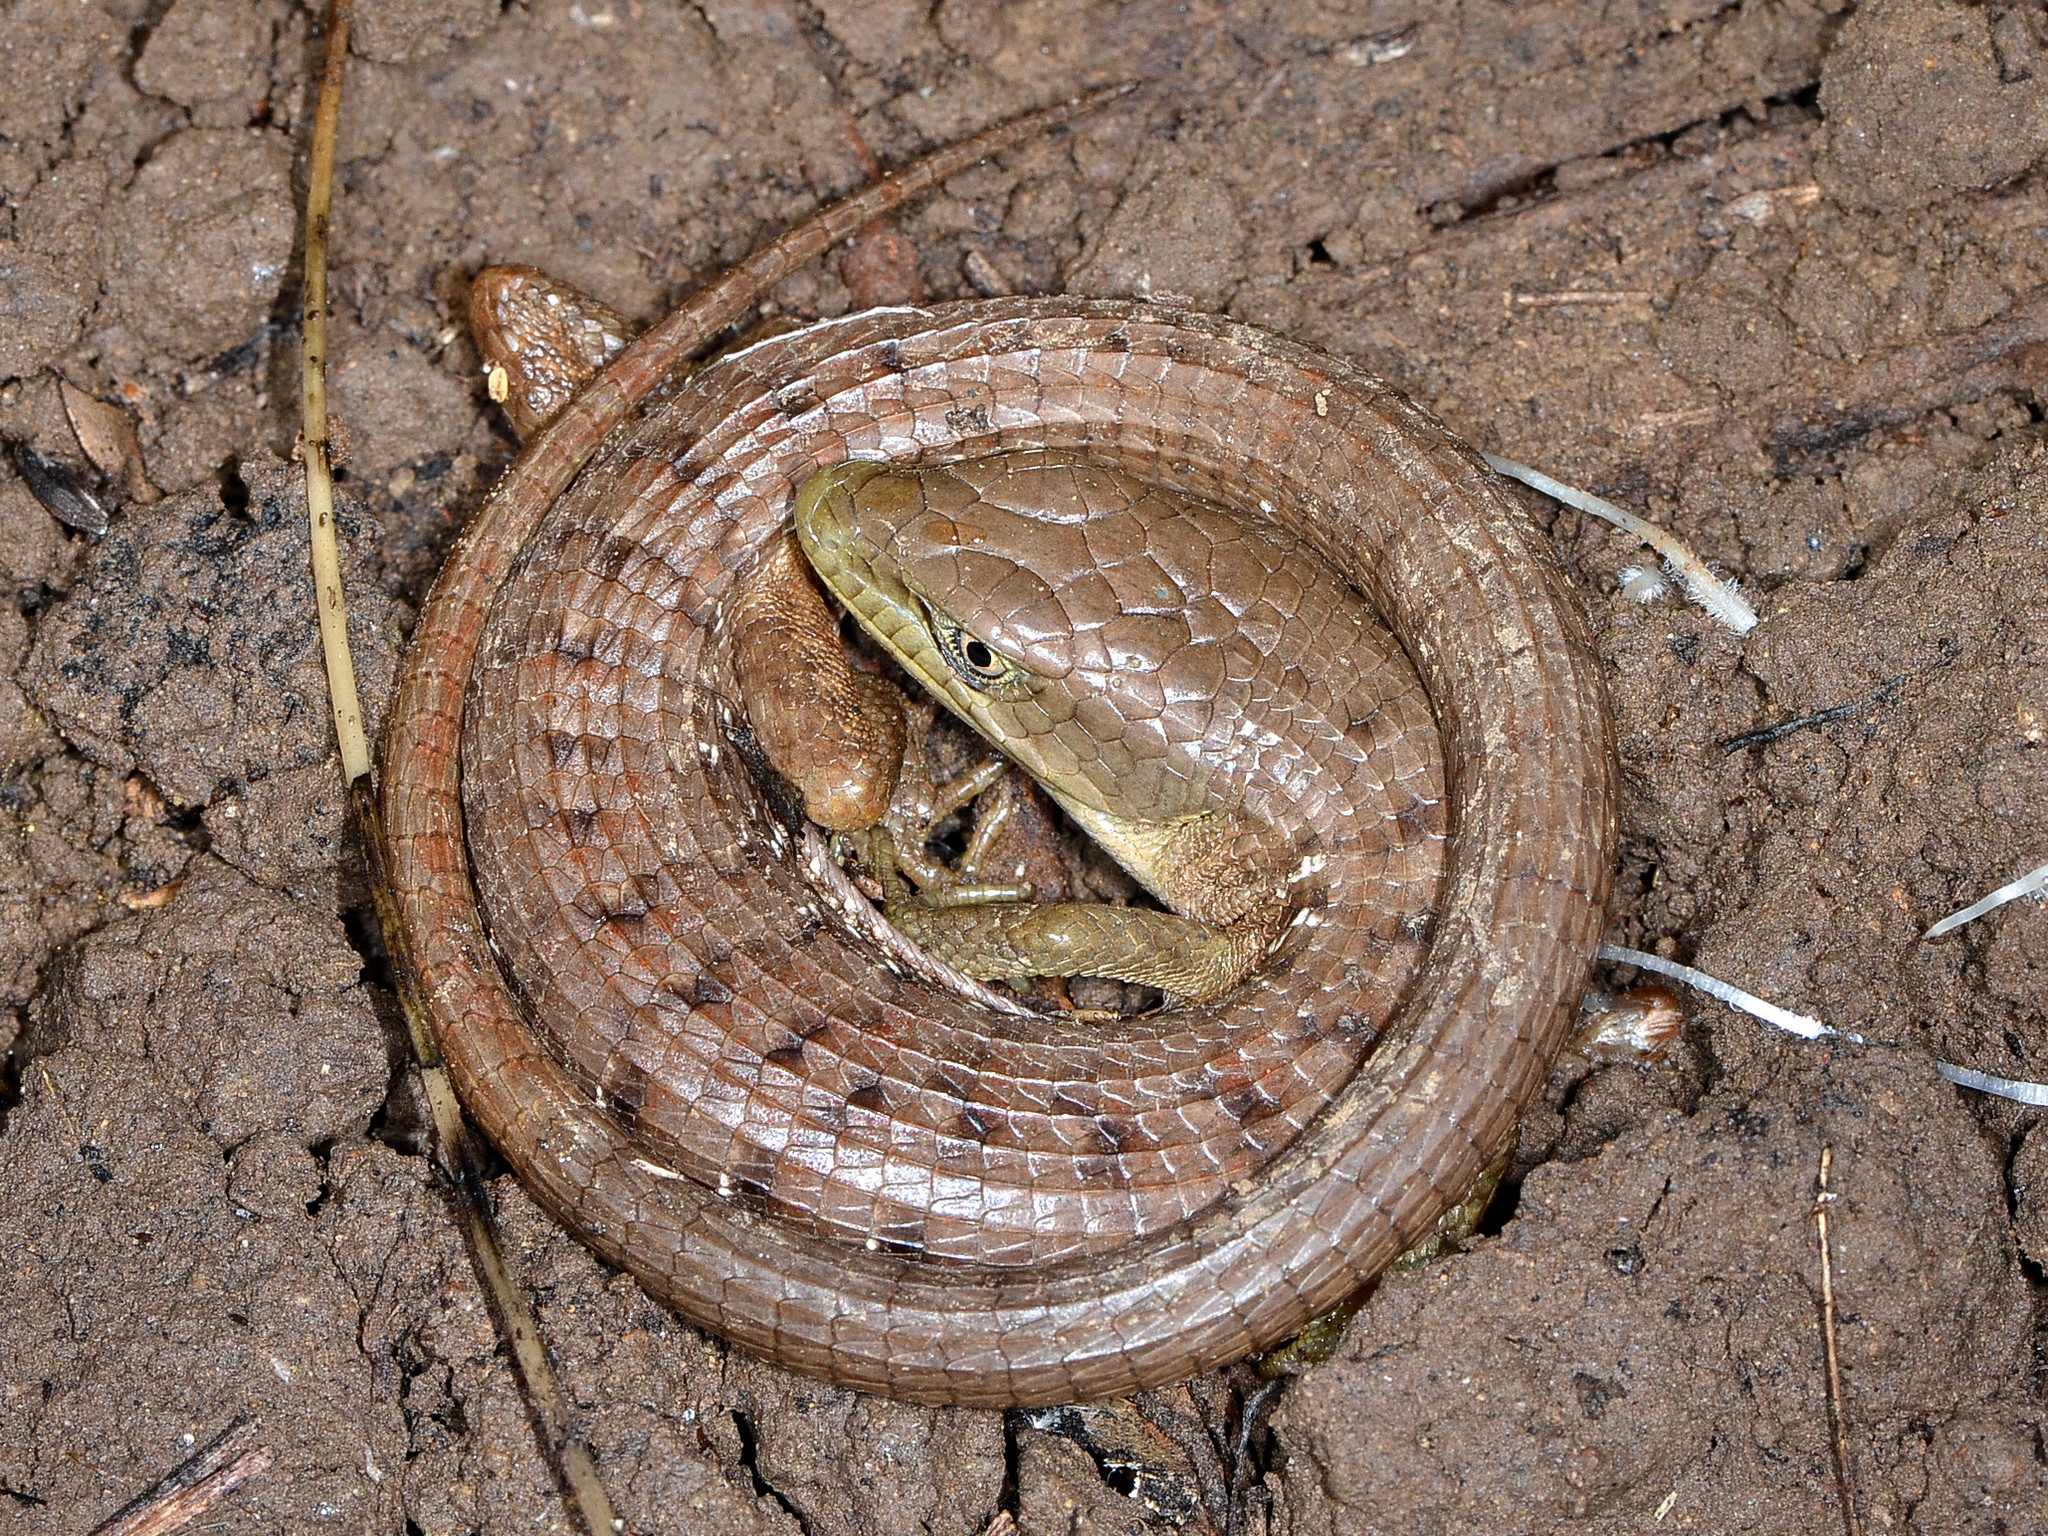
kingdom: Animalia
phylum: Chordata
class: Squamata
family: Anguidae
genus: Elgaria
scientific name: Elgaria multicarinata
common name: Southern alligator lizard
